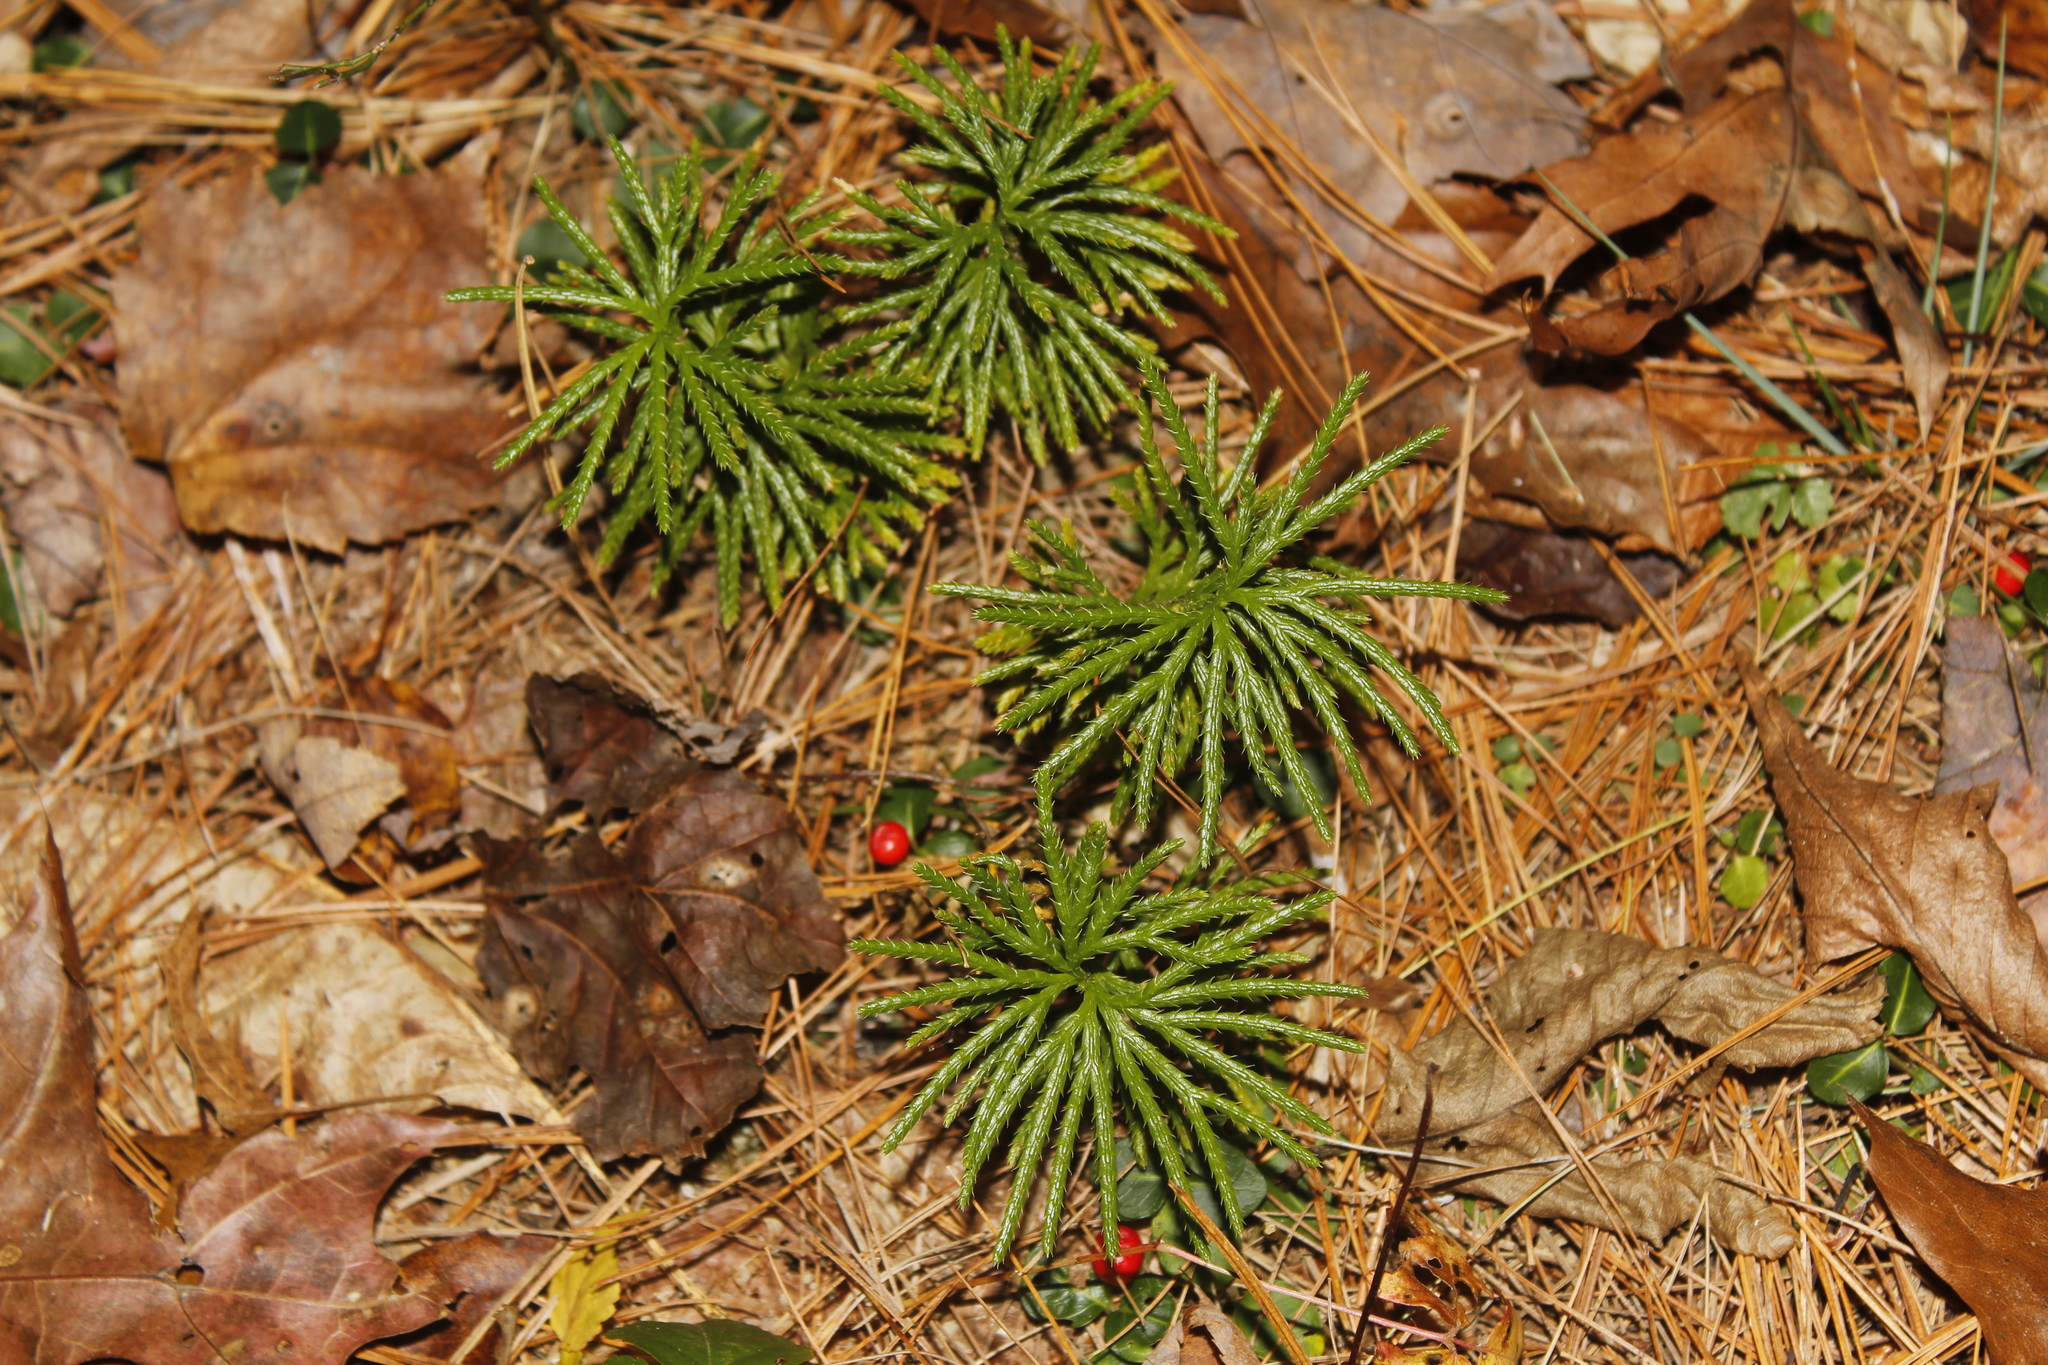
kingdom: Plantae
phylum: Tracheophyta
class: Lycopodiopsida
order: Lycopodiales
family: Lycopodiaceae
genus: Diphasiastrum
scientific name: Diphasiastrum digitatum
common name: Southern running-pine
